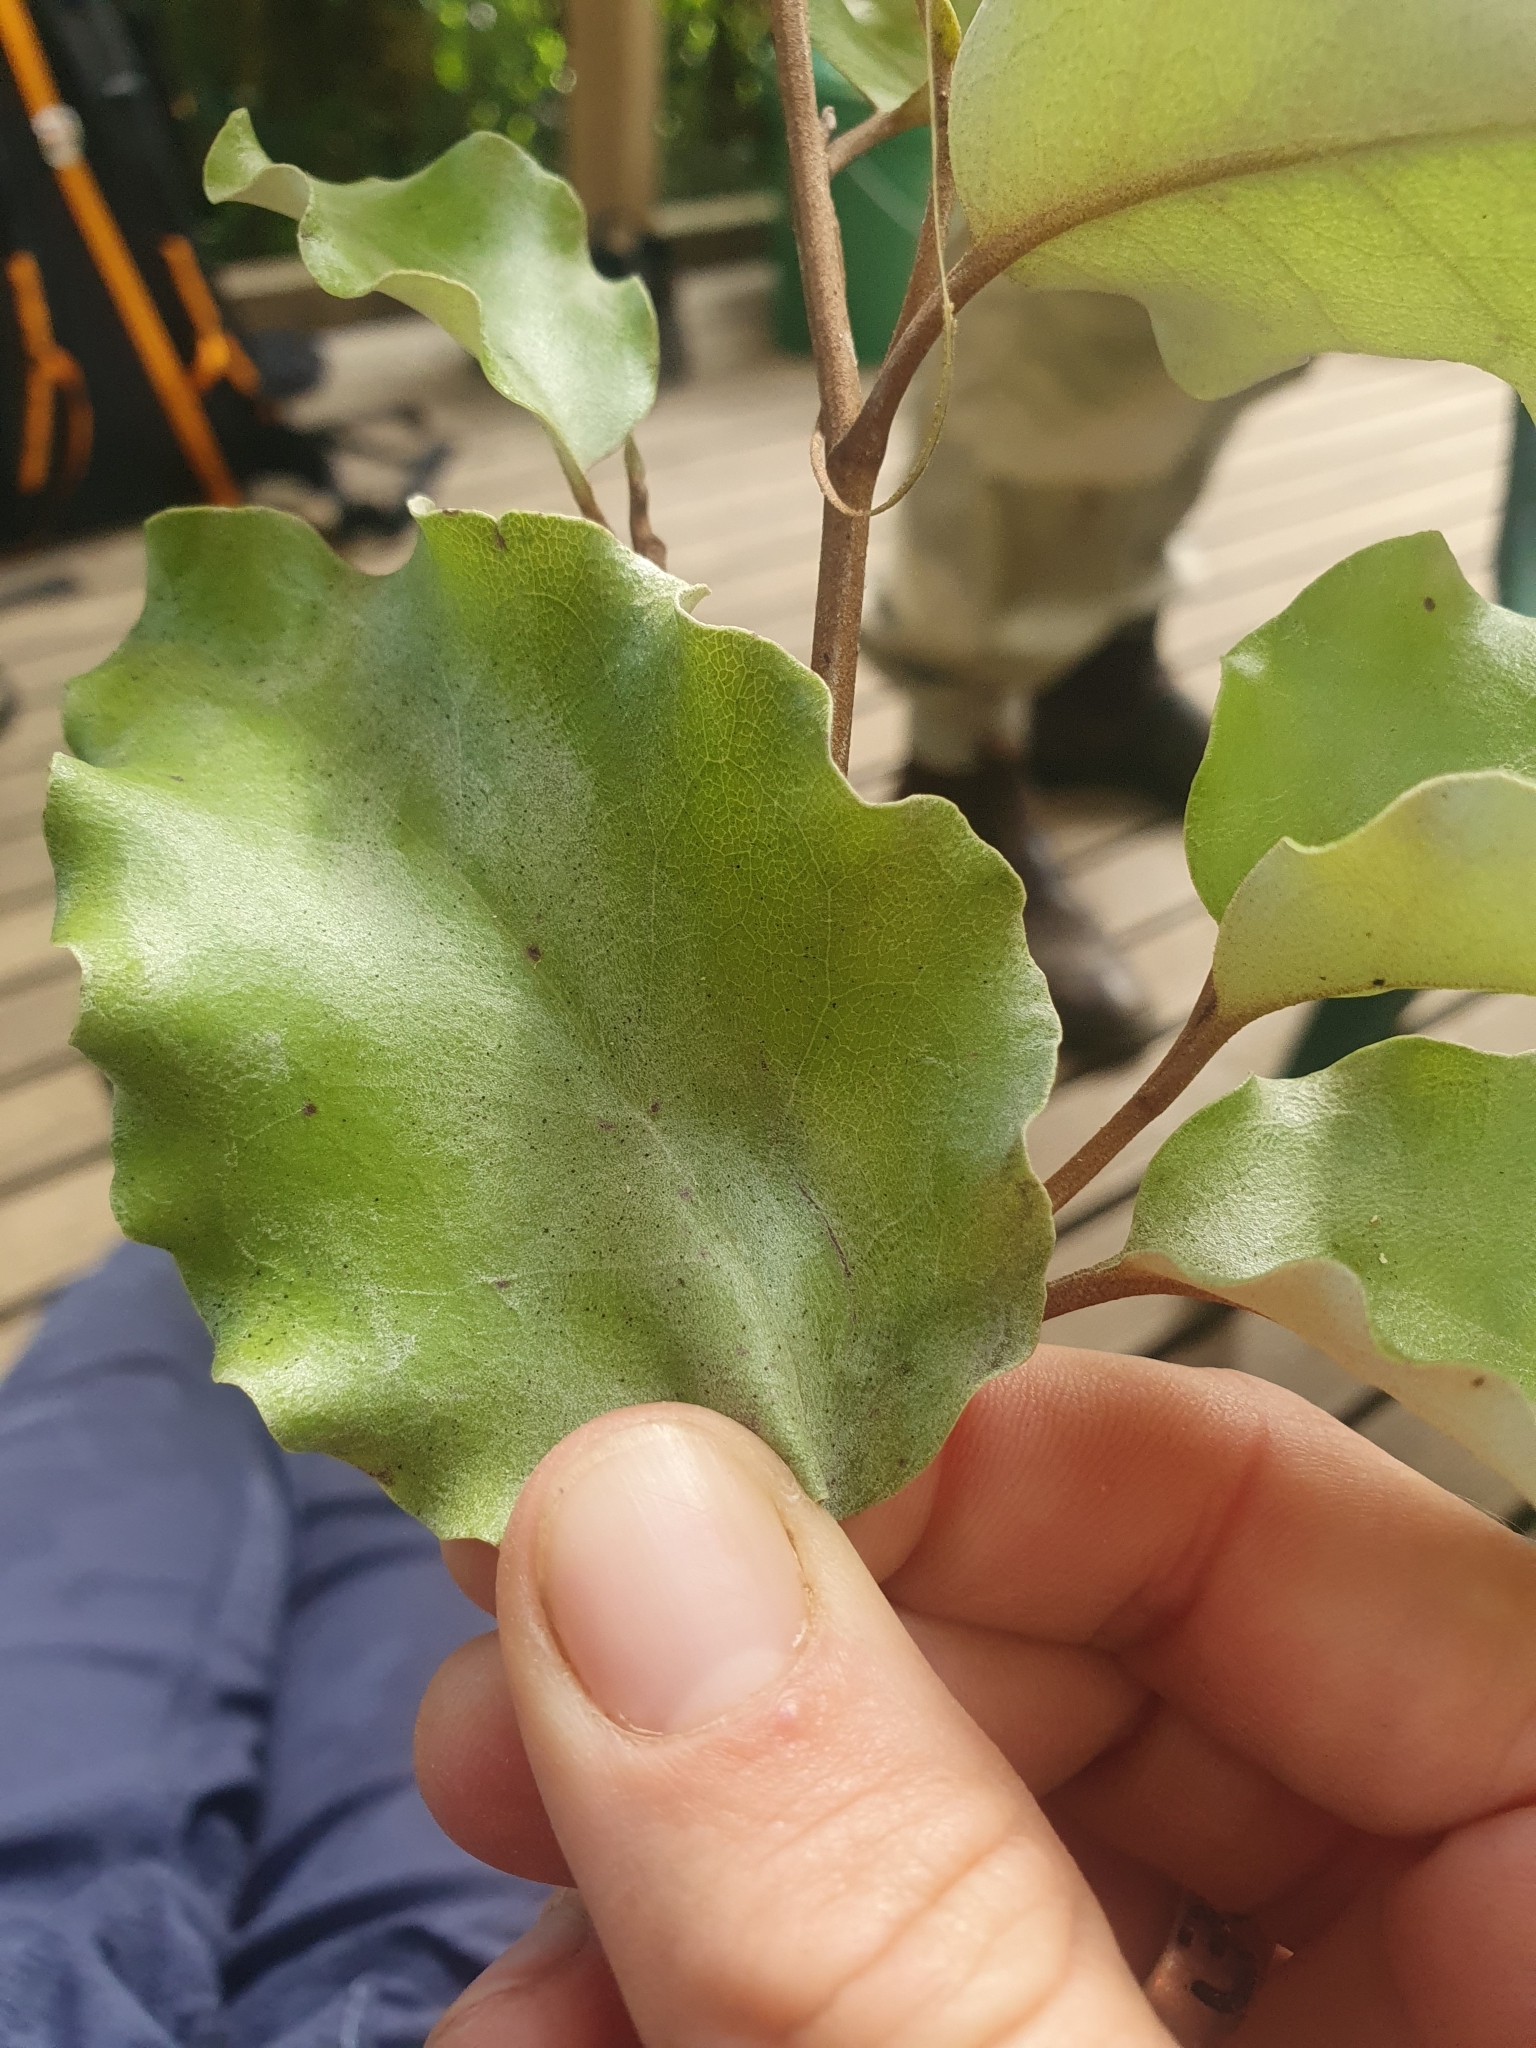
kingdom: Plantae
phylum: Tracheophyta
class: Magnoliopsida
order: Asterales
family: Asteraceae
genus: Olearia
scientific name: Olearia paniculata
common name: Akiraho
